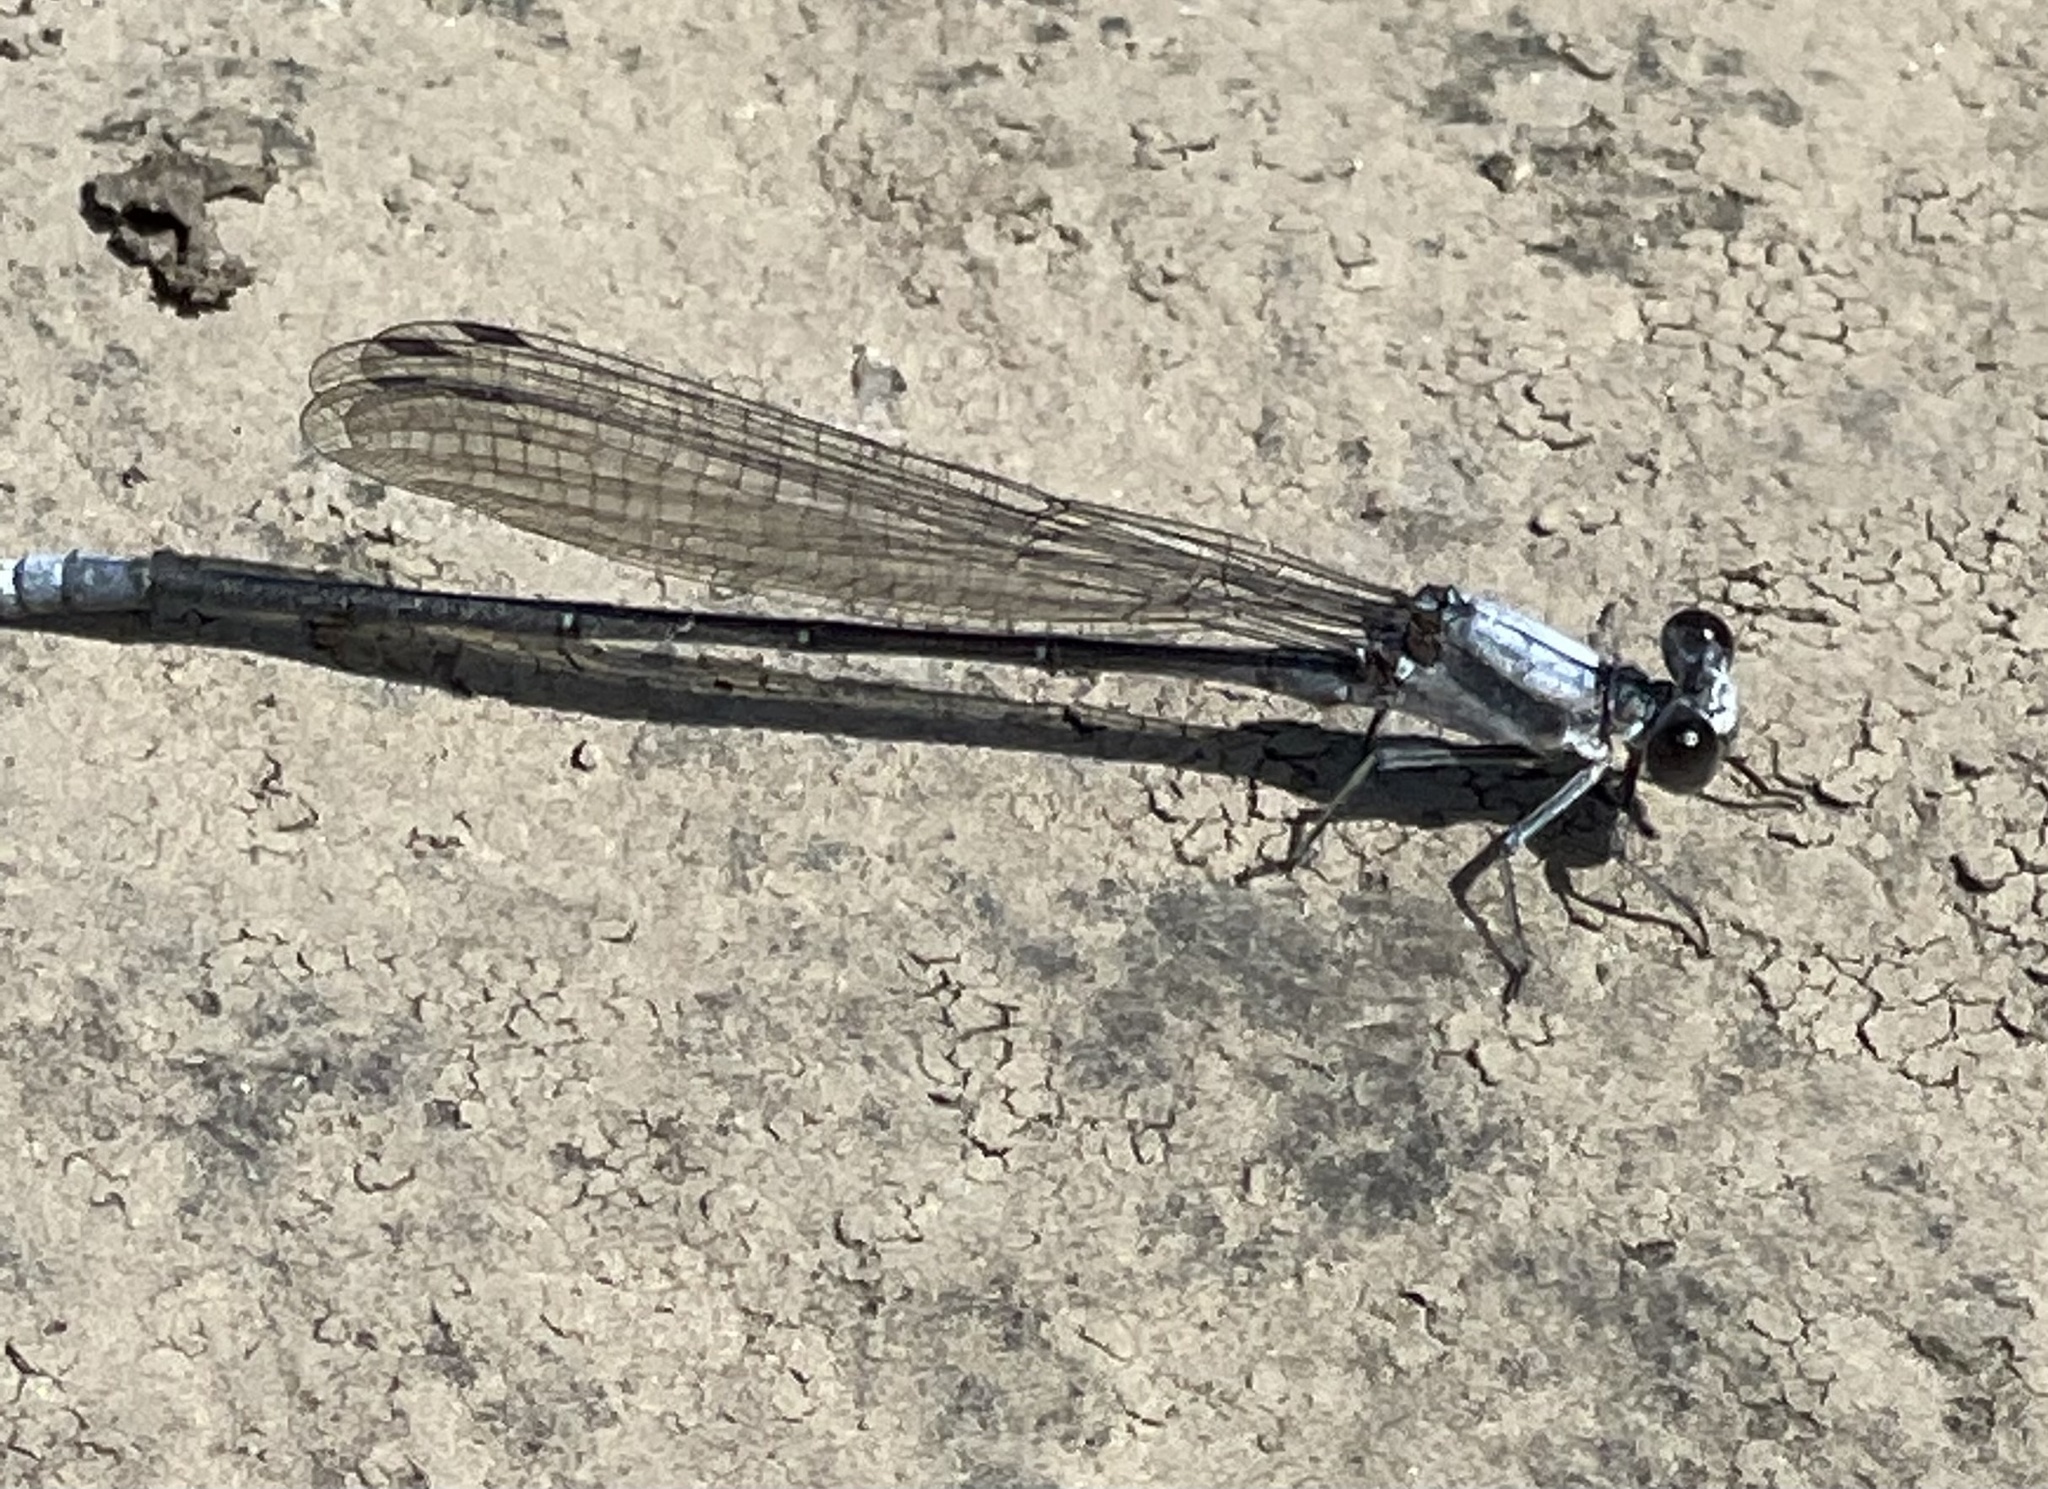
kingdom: Animalia
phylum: Arthropoda
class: Insecta
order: Odonata
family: Coenagrionidae
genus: Argia
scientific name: Argia moesta
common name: Powdered dancer
